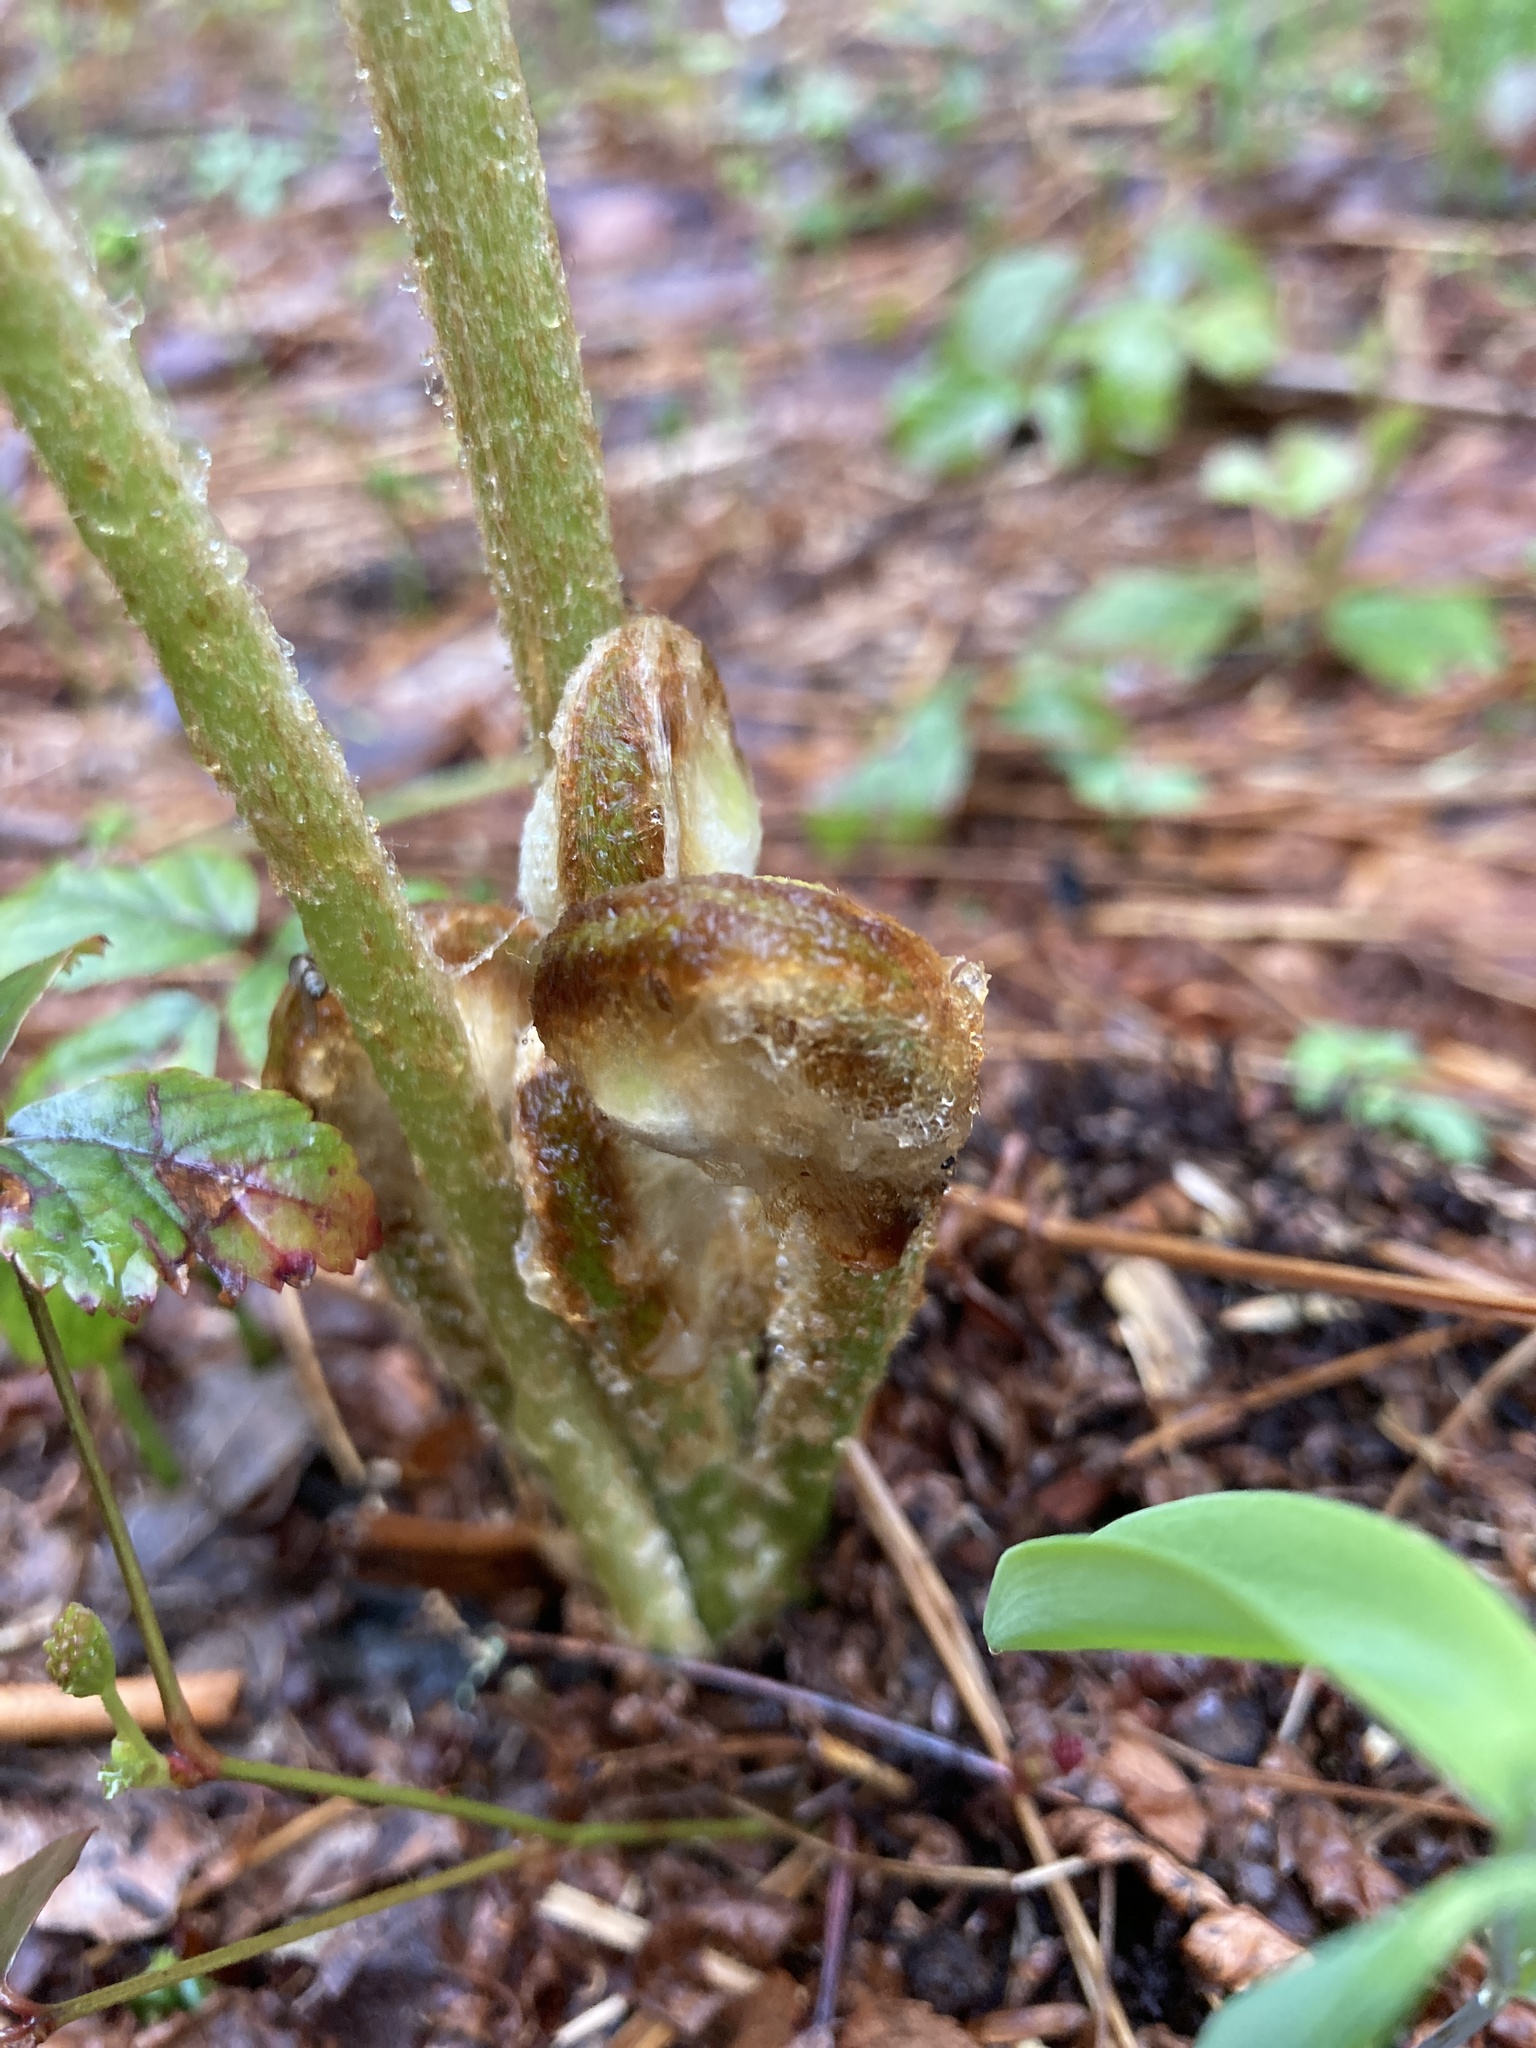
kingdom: Plantae
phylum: Tracheophyta
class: Polypodiopsida
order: Osmundales
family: Osmundaceae
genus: Osmundastrum
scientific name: Osmundastrum cinnamomeum
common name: Cinnamon fern
